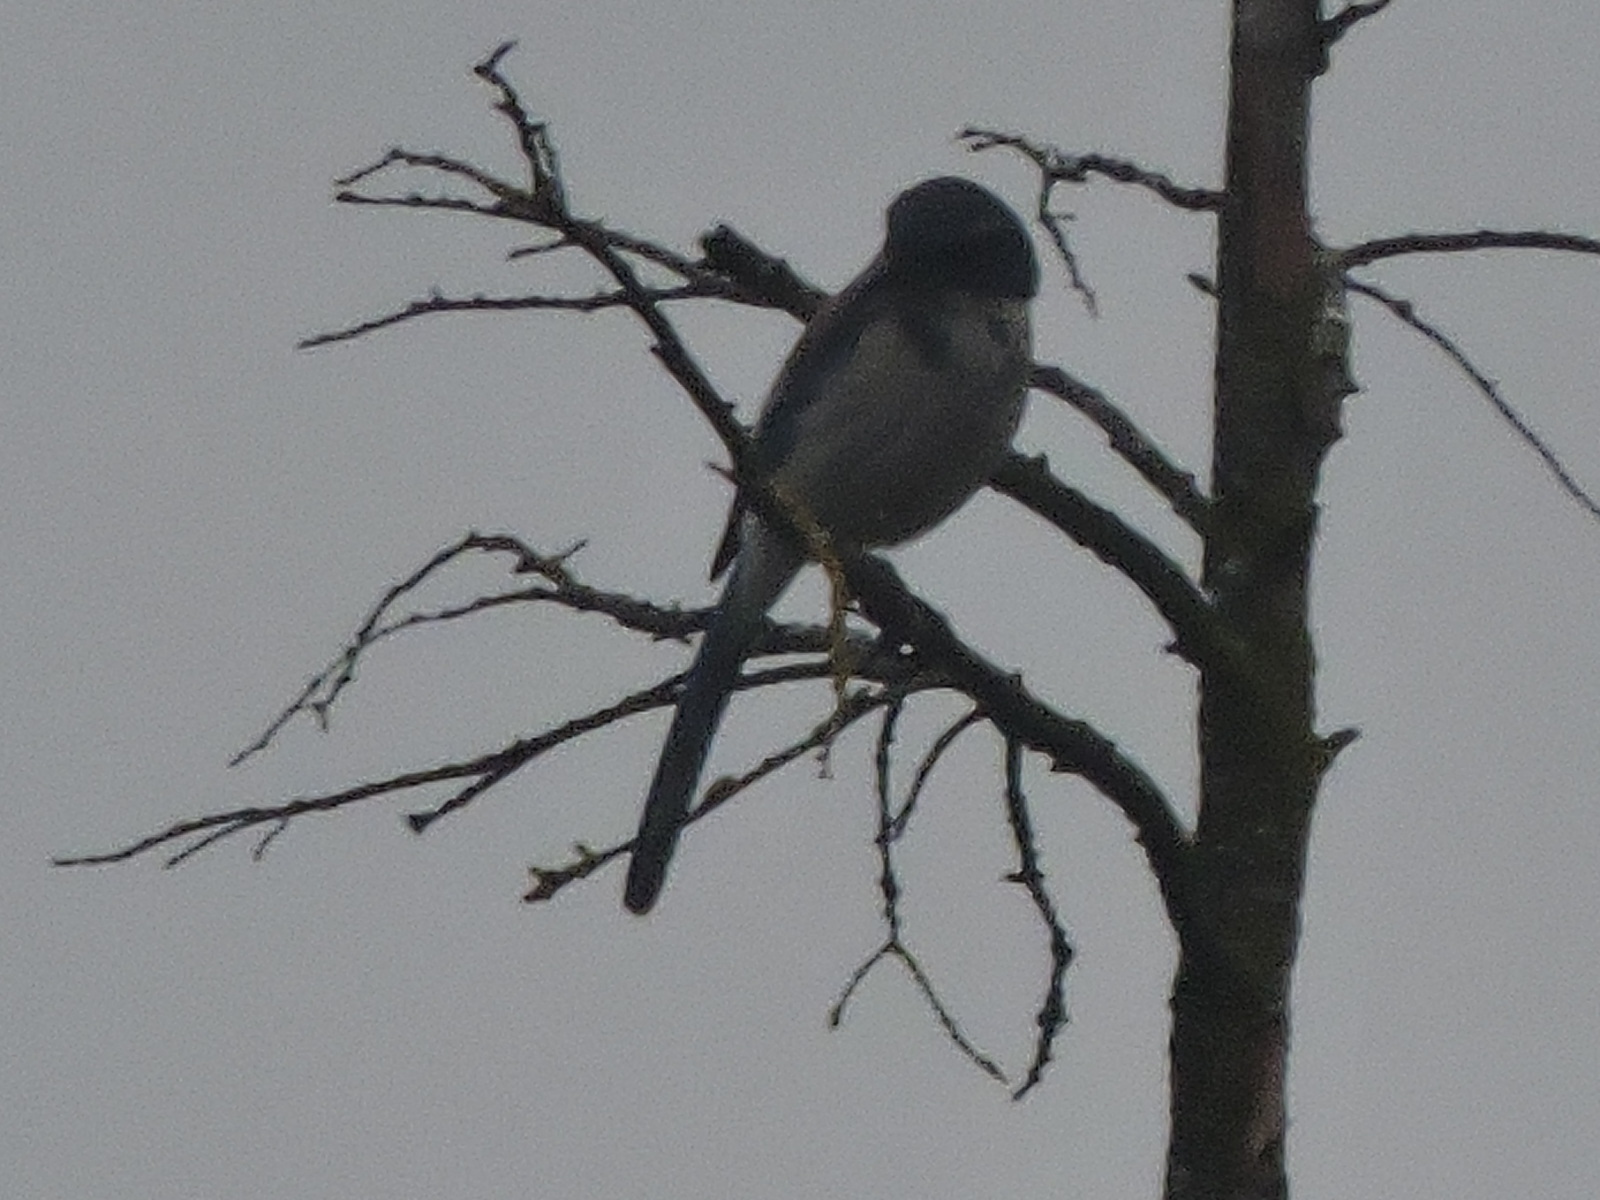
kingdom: Animalia
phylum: Chordata
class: Aves
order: Passeriformes
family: Corvidae
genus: Aphelocoma
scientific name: Aphelocoma californica
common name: California scrub-jay
